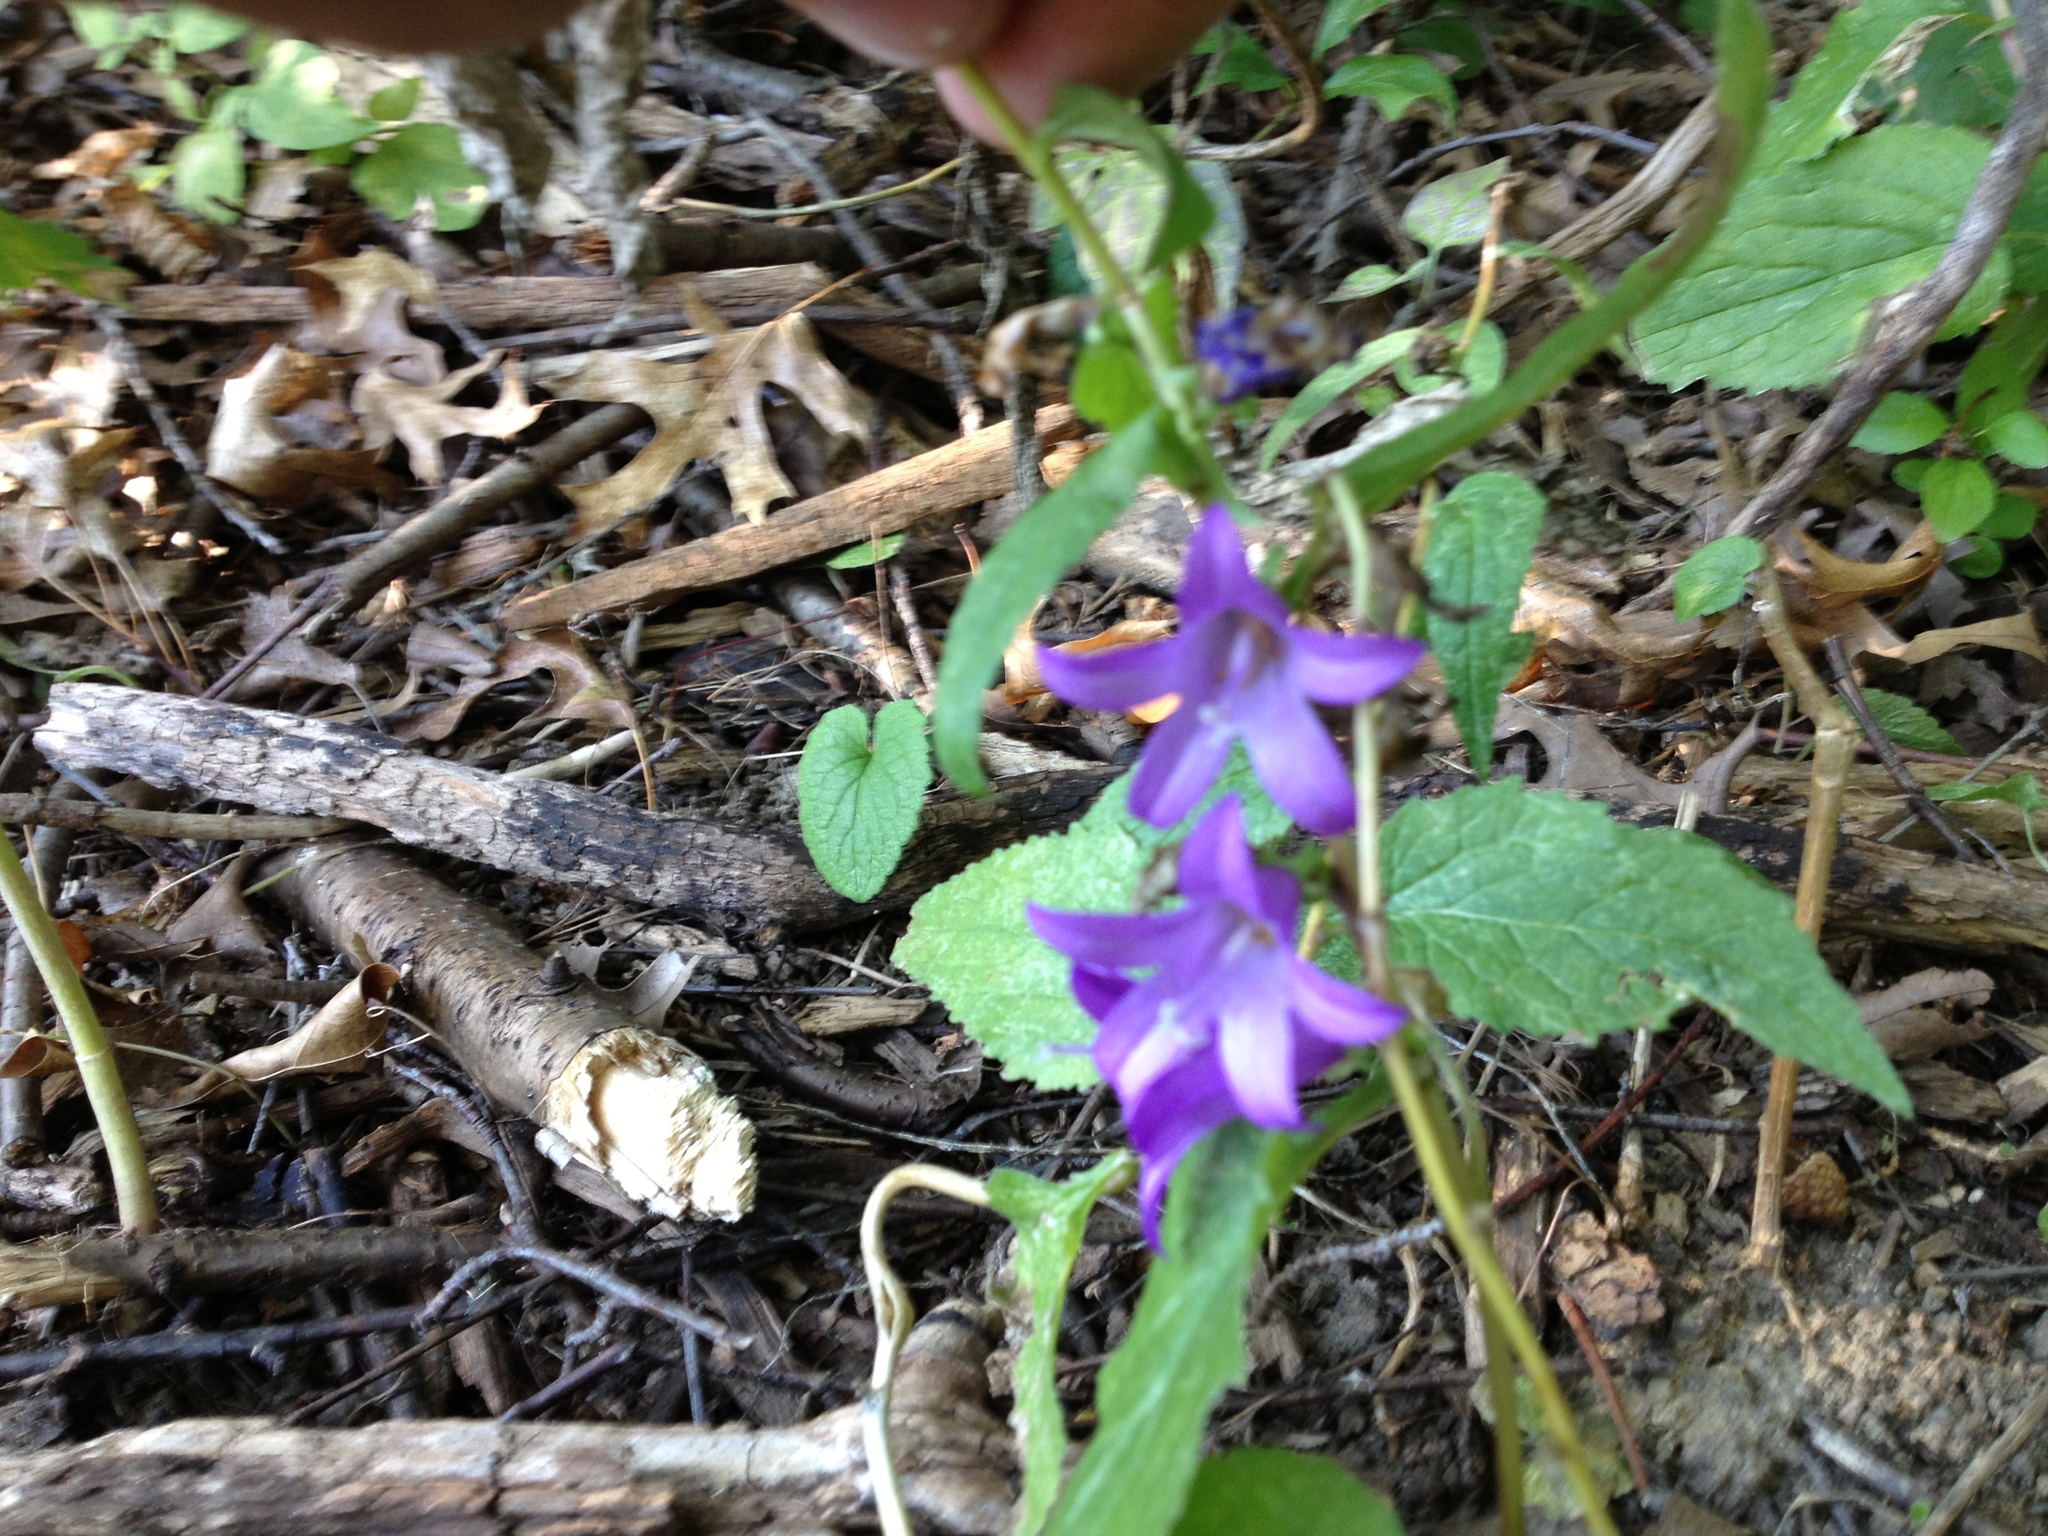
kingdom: Plantae
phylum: Tracheophyta
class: Magnoliopsida
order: Asterales
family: Campanulaceae
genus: Campanula
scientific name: Campanula rapunculoides
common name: Creeping bellflower
